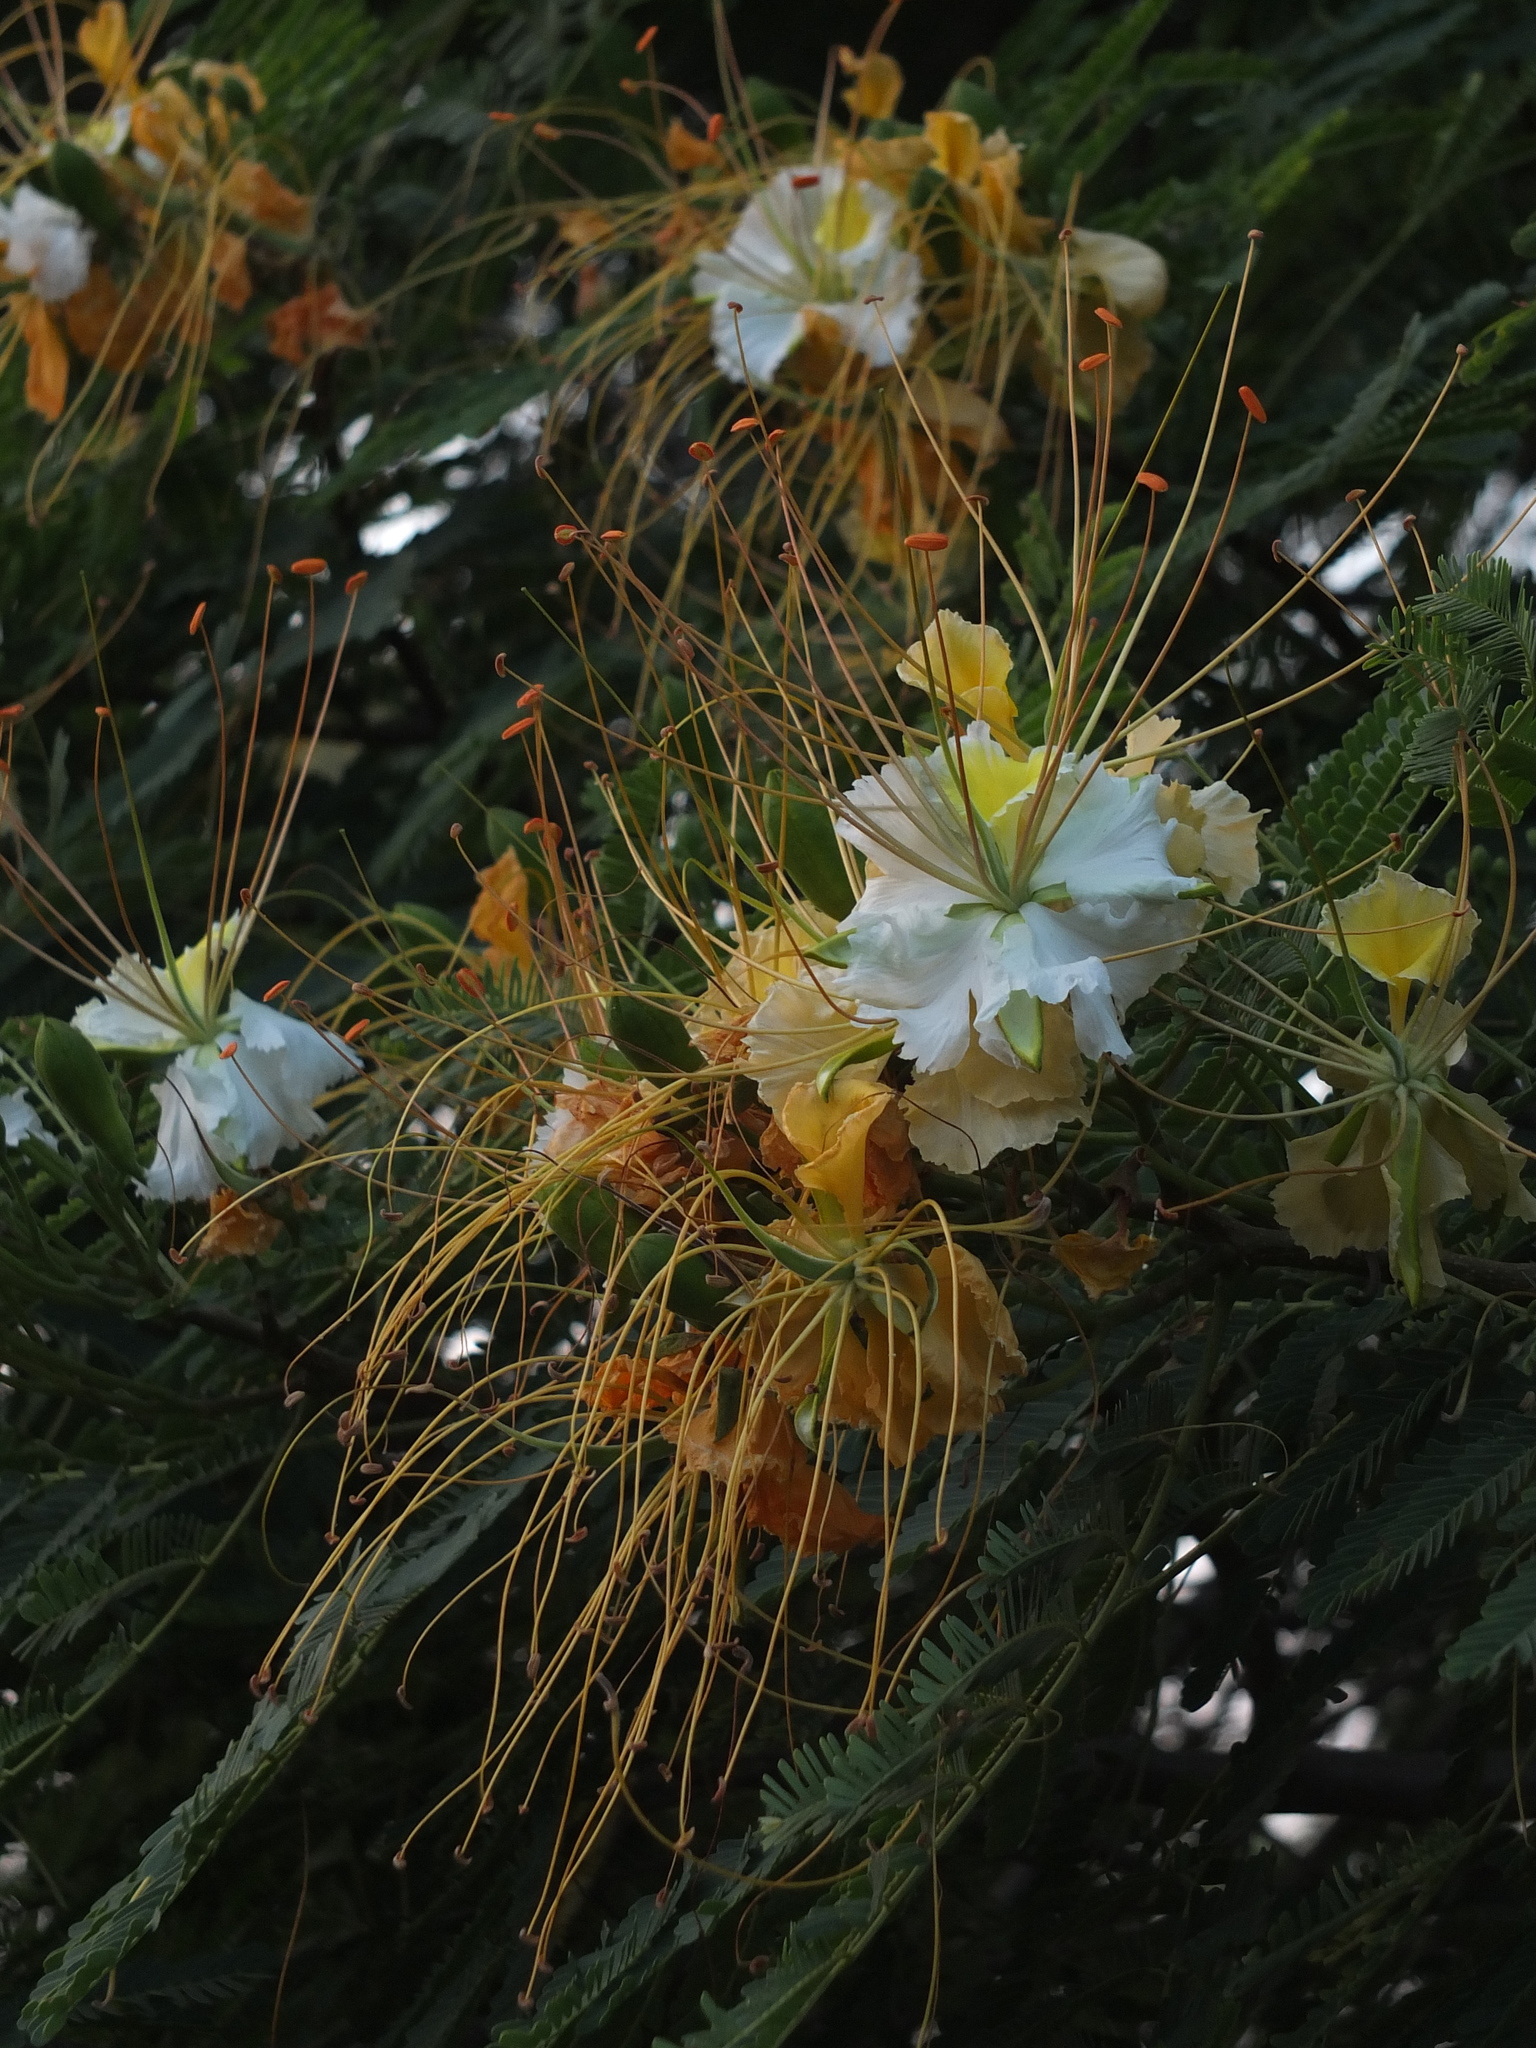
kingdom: Plantae
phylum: Tracheophyta
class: Magnoliopsida
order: Fabales
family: Fabaceae
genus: Delonix
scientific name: Delonix elata
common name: Creamy peacock flower
